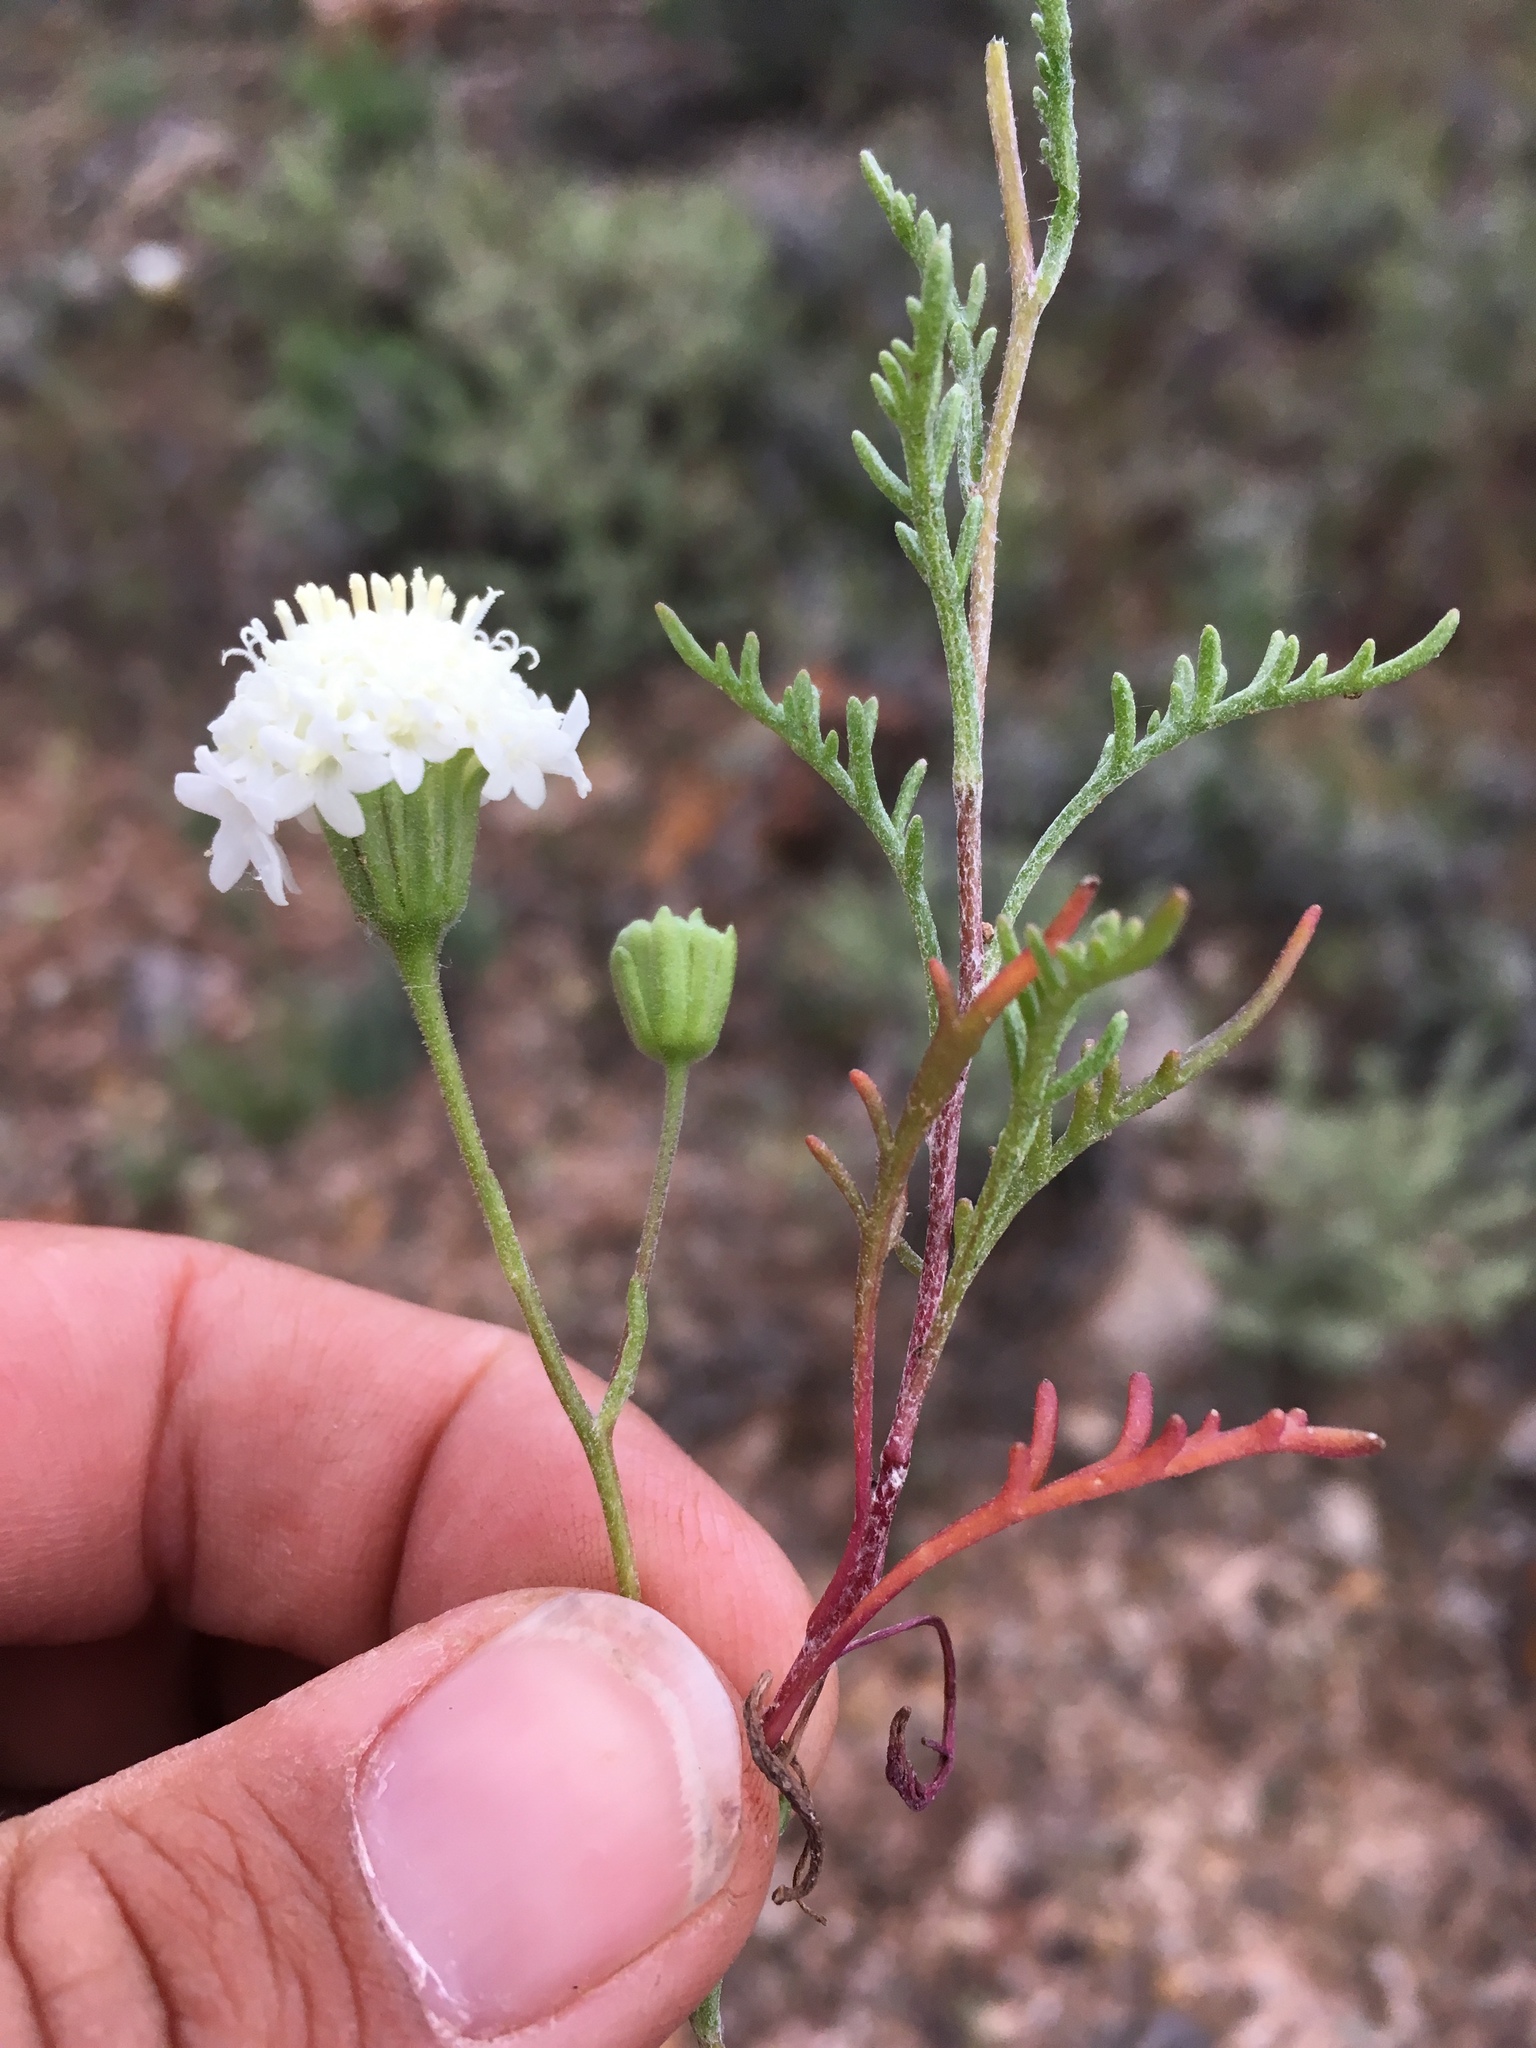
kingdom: Plantae
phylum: Tracheophyta
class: Magnoliopsida
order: Asterales
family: Asteraceae
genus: Chaenactis
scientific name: Chaenactis stevioides
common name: Desert pincushion
